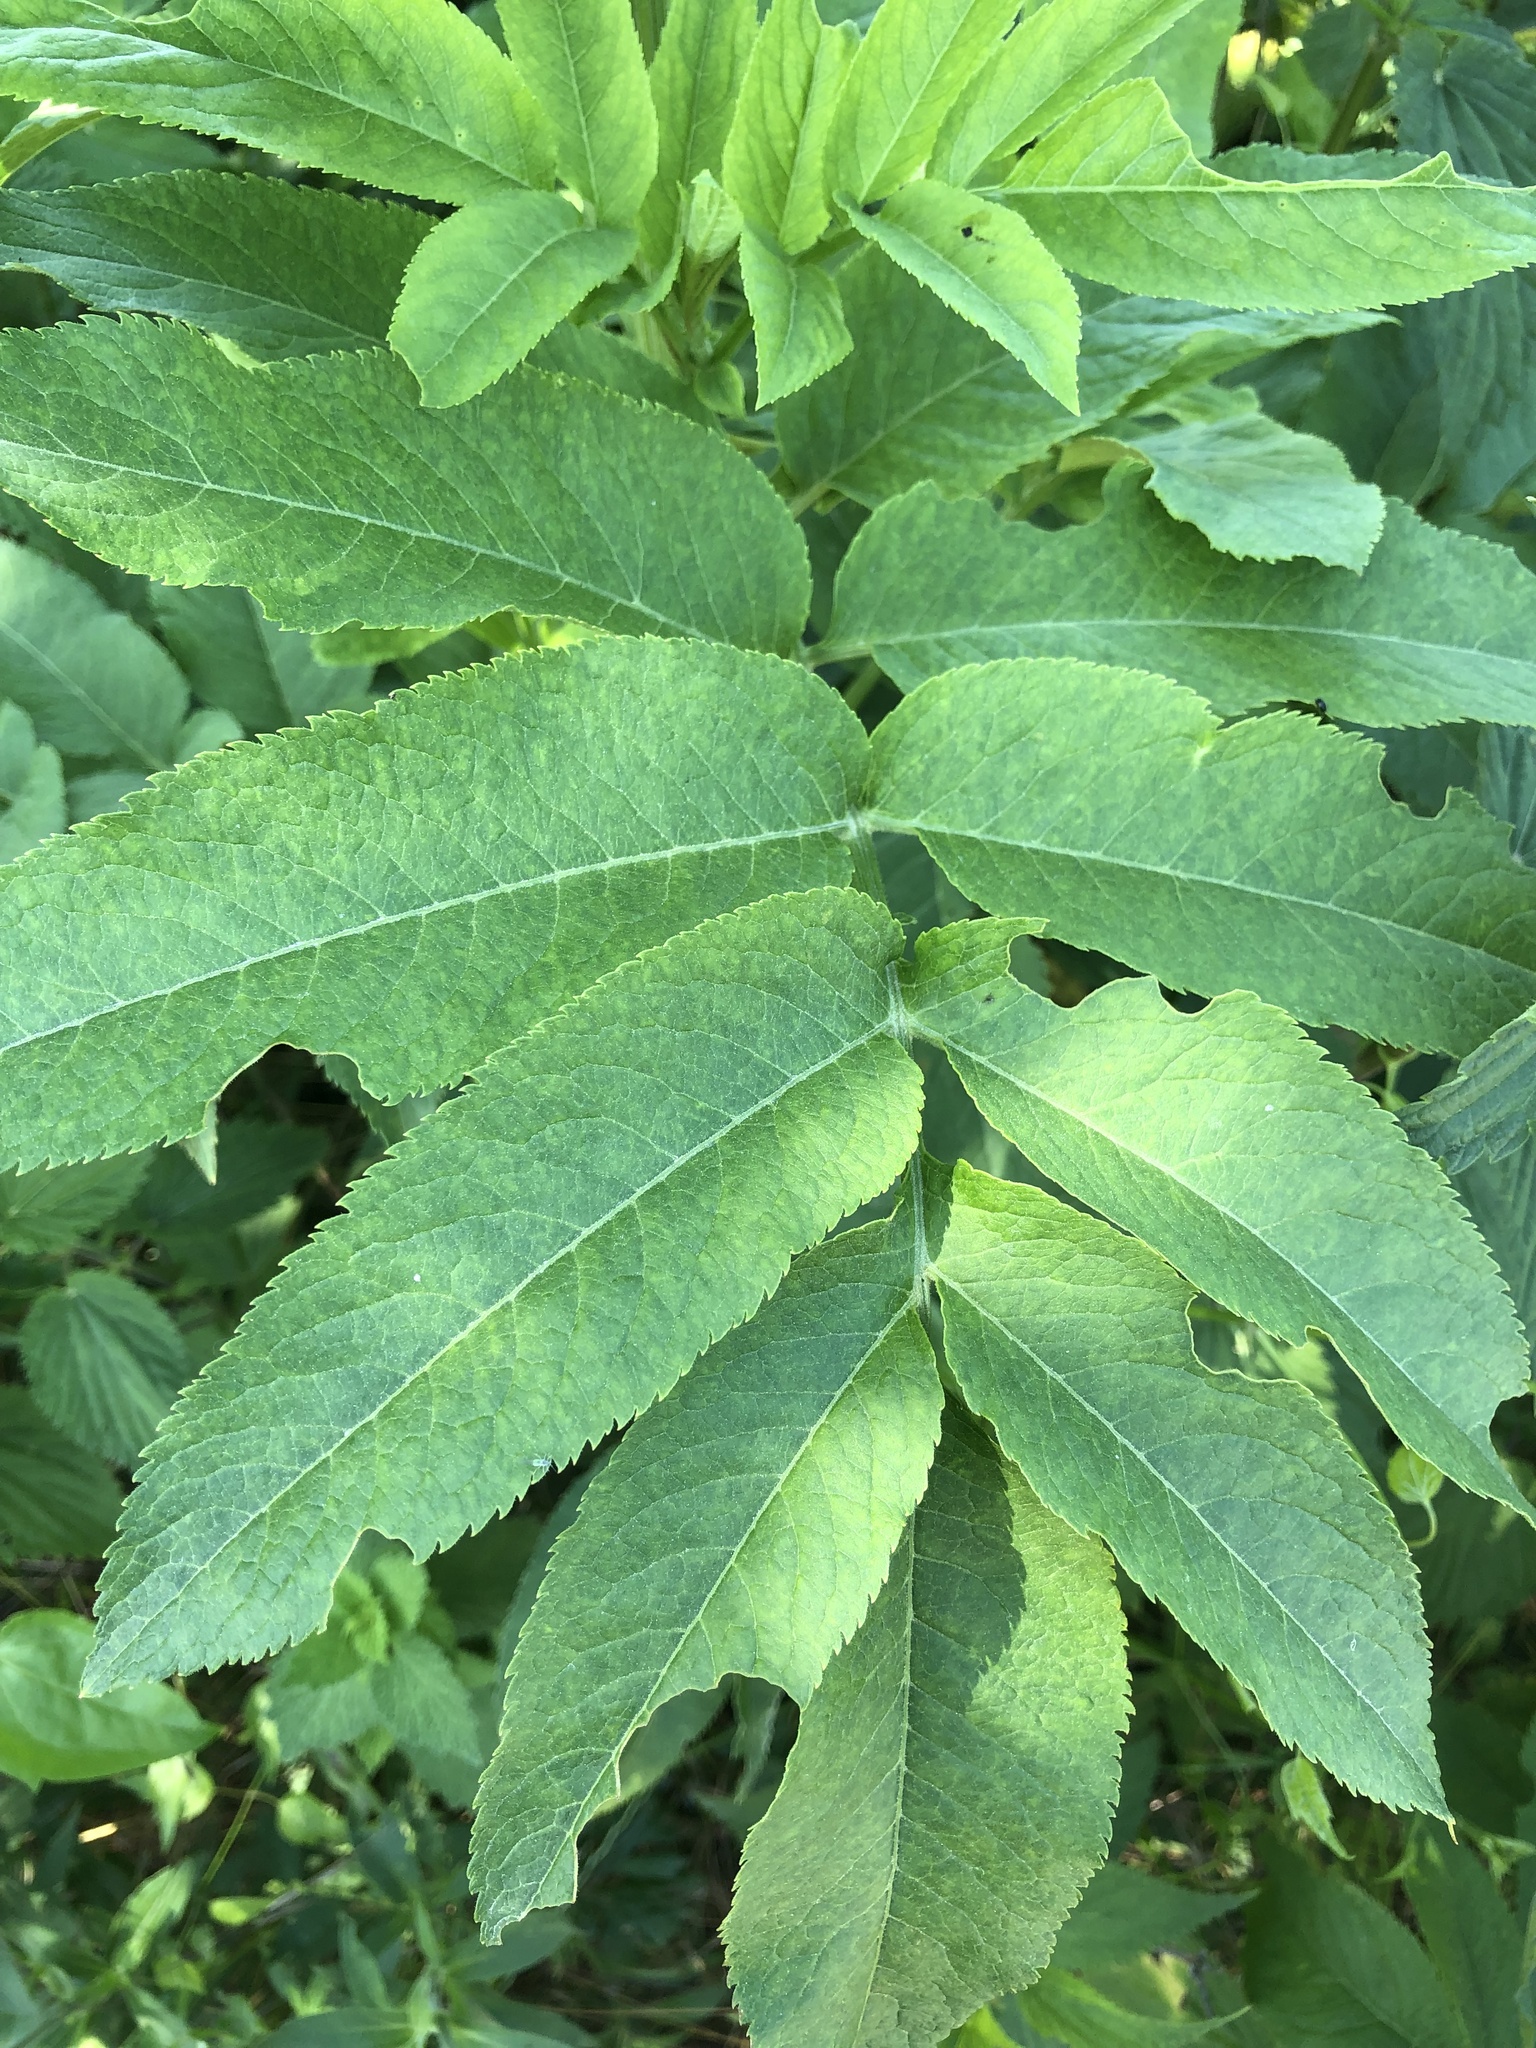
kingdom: Plantae
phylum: Tracheophyta
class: Magnoliopsida
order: Dipsacales
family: Viburnaceae
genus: Sambucus
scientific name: Sambucus ebulus
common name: Dwarf elder
